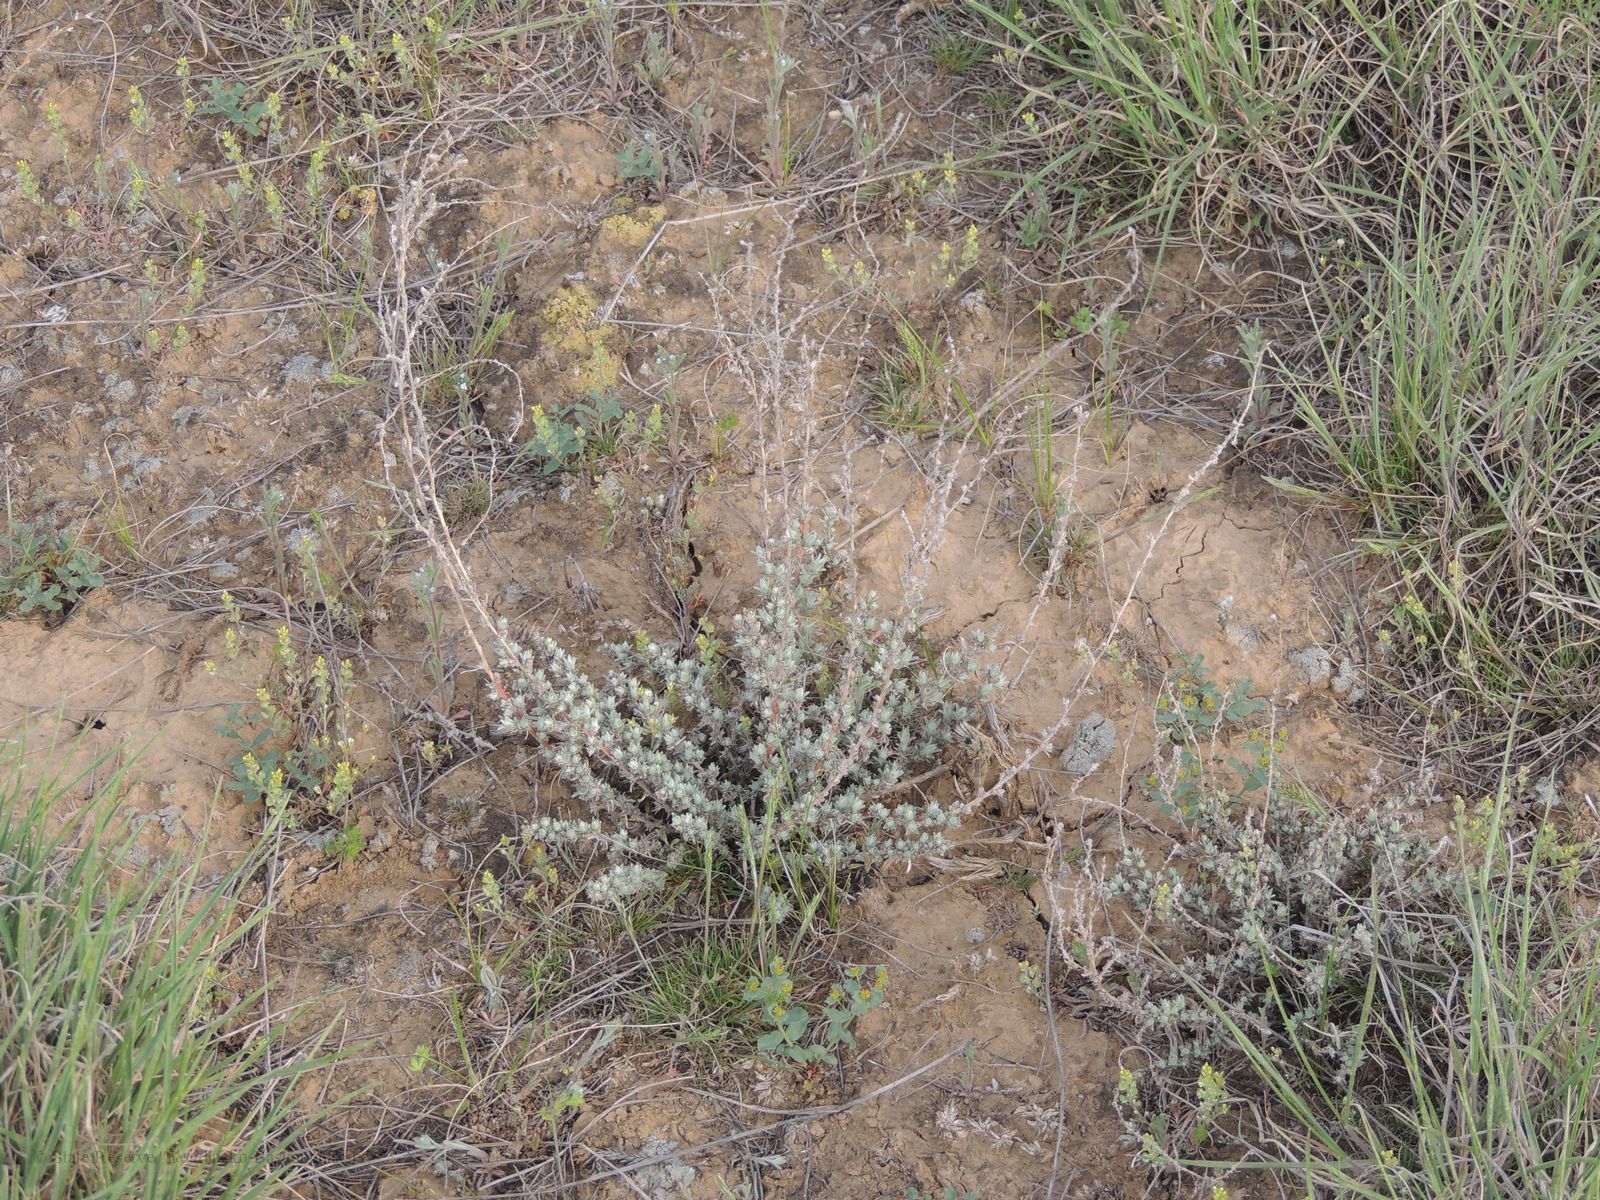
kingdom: Plantae
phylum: Tracheophyta
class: Magnoliopsida
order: Caryophyllales
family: Amaranthaceae
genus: Bassia
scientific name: Bassia prostrata
